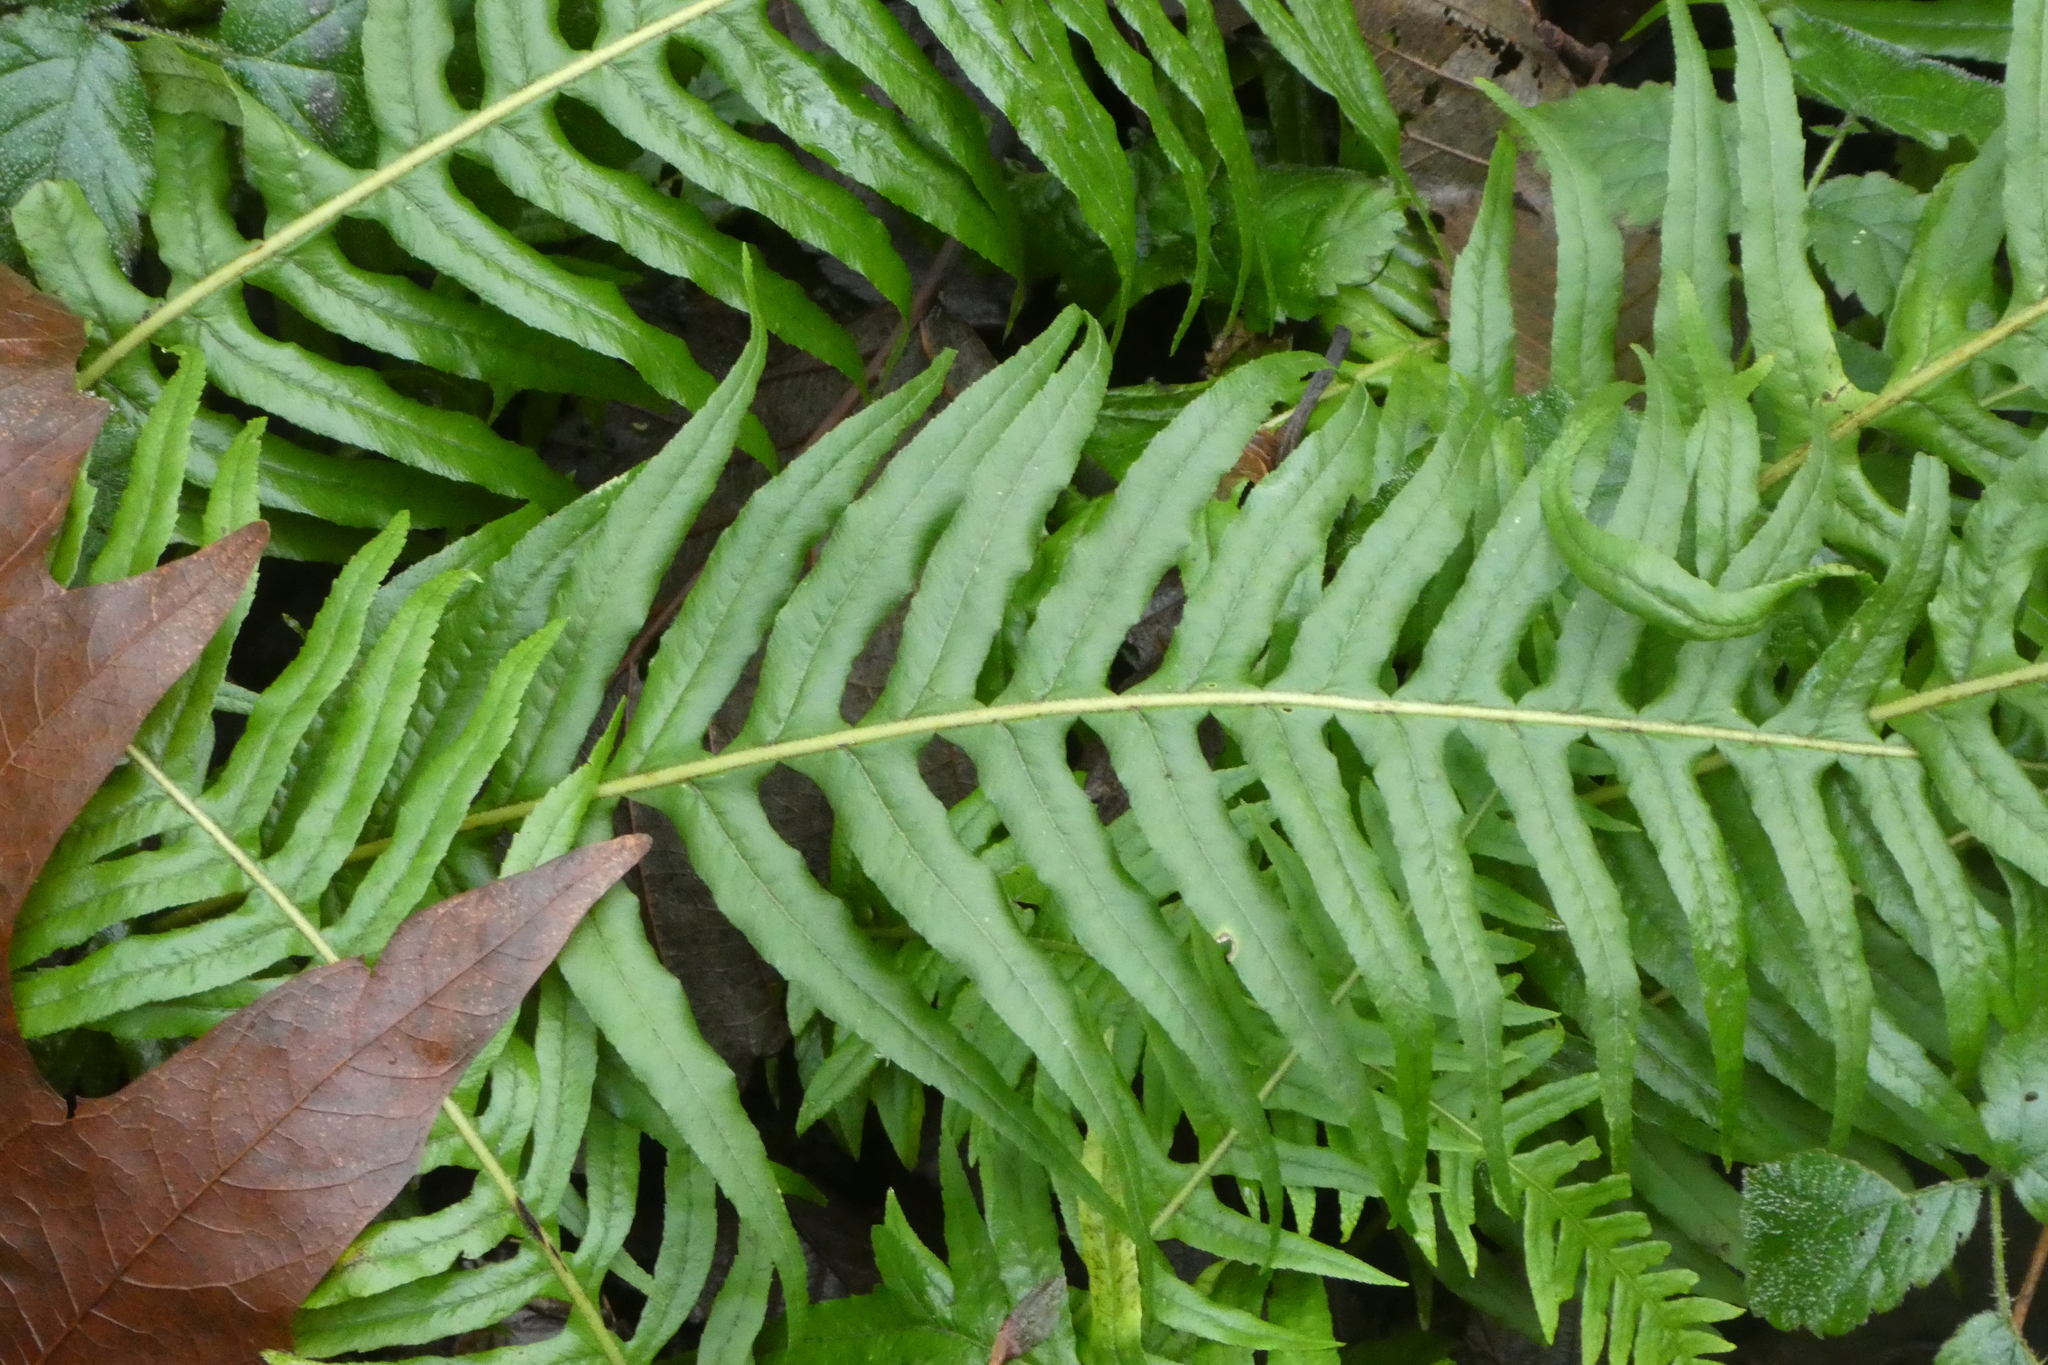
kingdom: Plantae
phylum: Tracheophyta
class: Polypodiopsida
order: Polypodiales
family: Polypodiaceae
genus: Polypodium
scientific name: Polypodium glycyrrhiza
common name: Licorice fern
